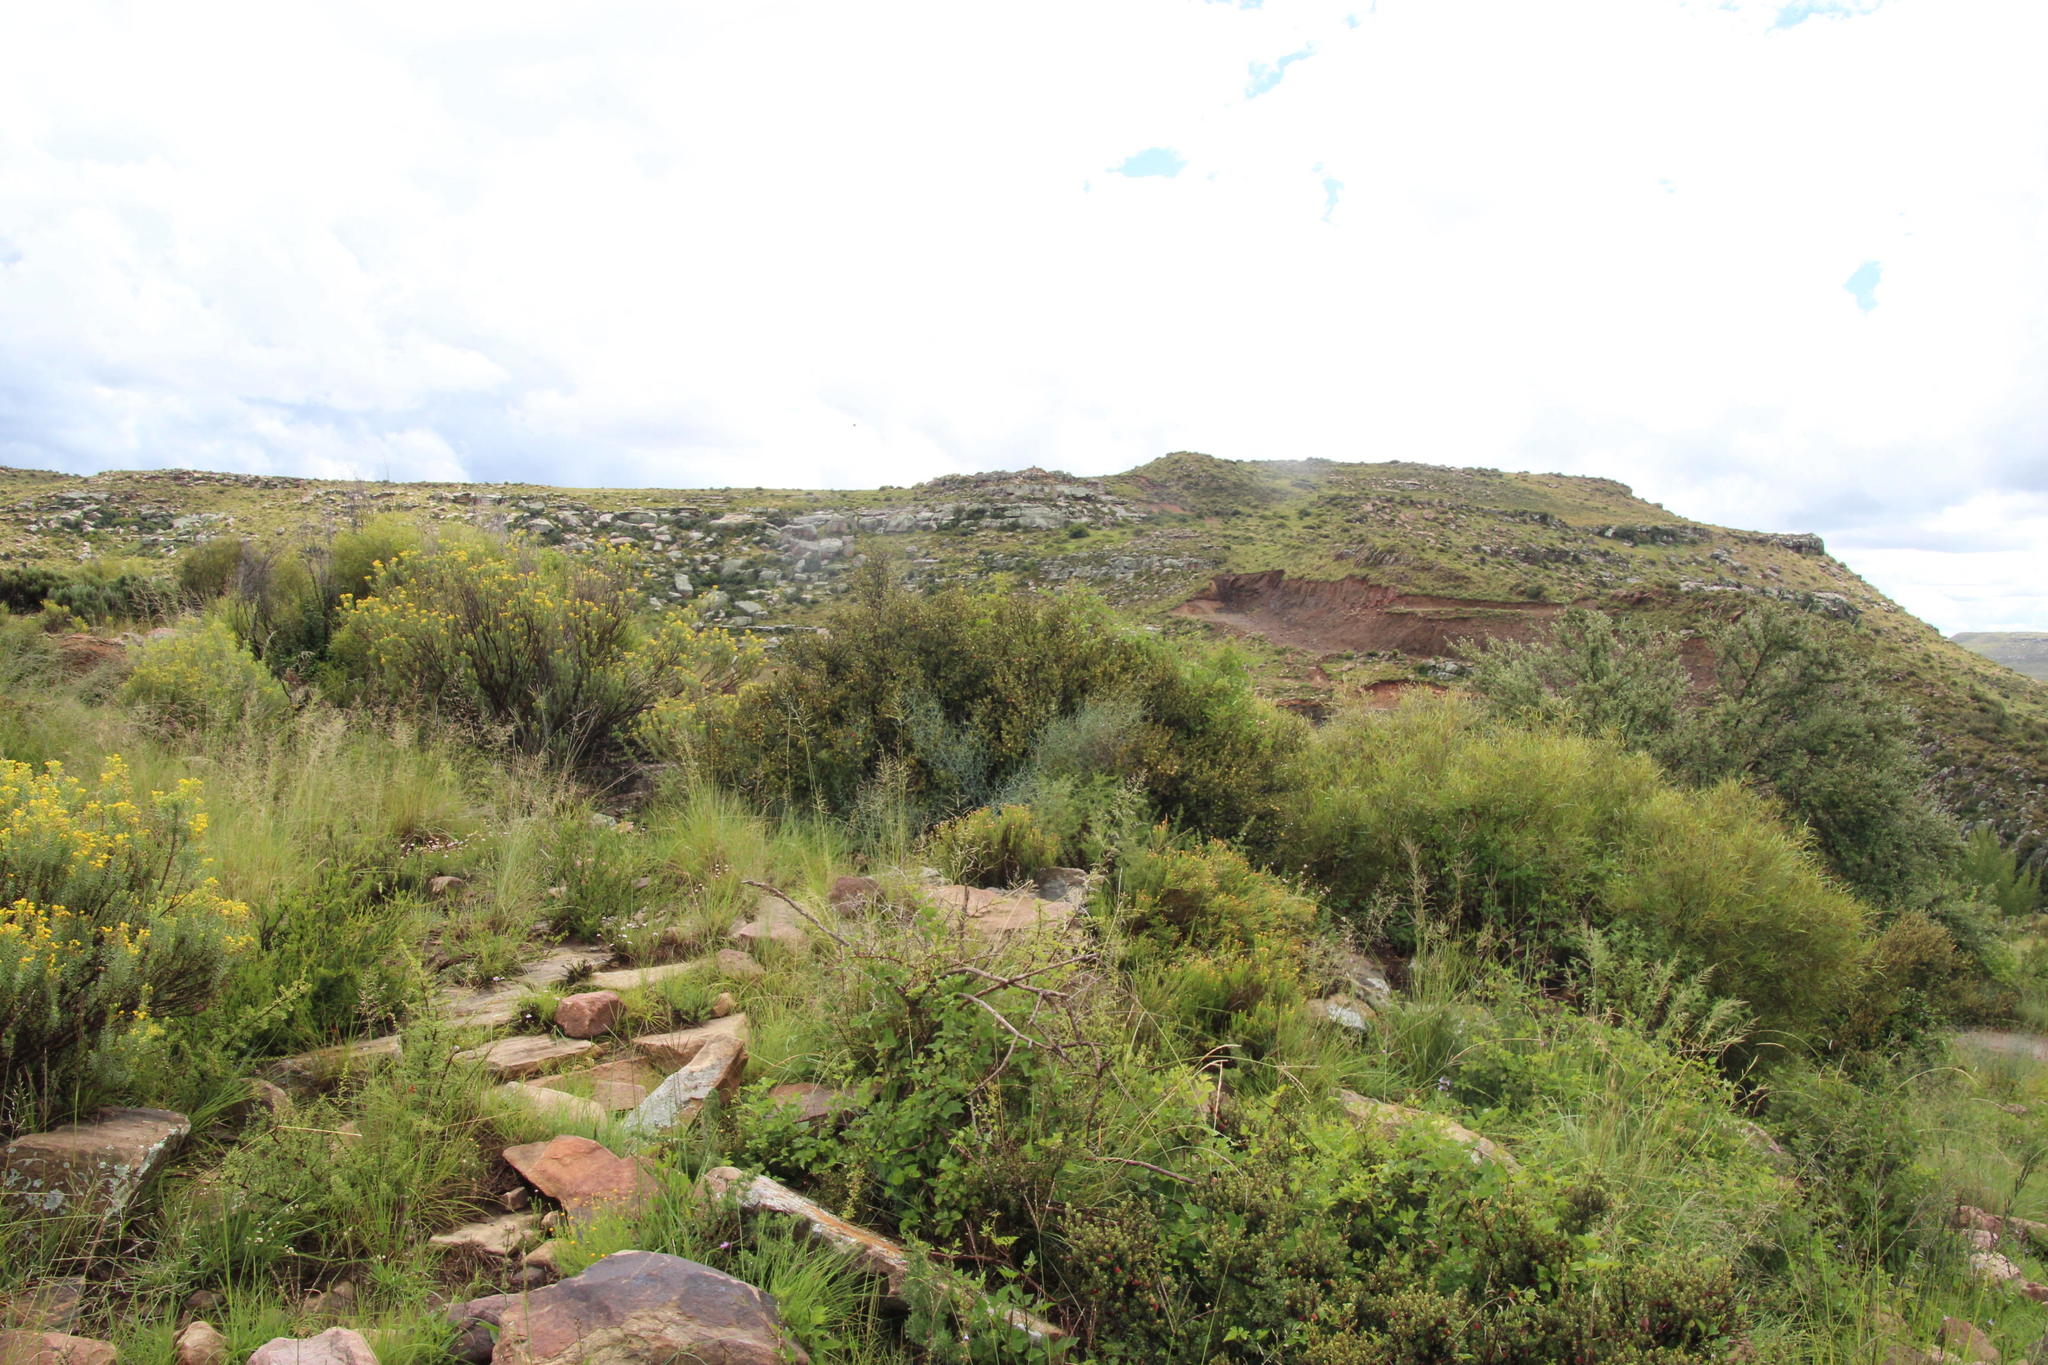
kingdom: Plantae
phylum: Tracheophyta
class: Liliopsida
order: Asparagales
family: Asparagaceae
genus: Asparagus
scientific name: Asparagus denudatus
